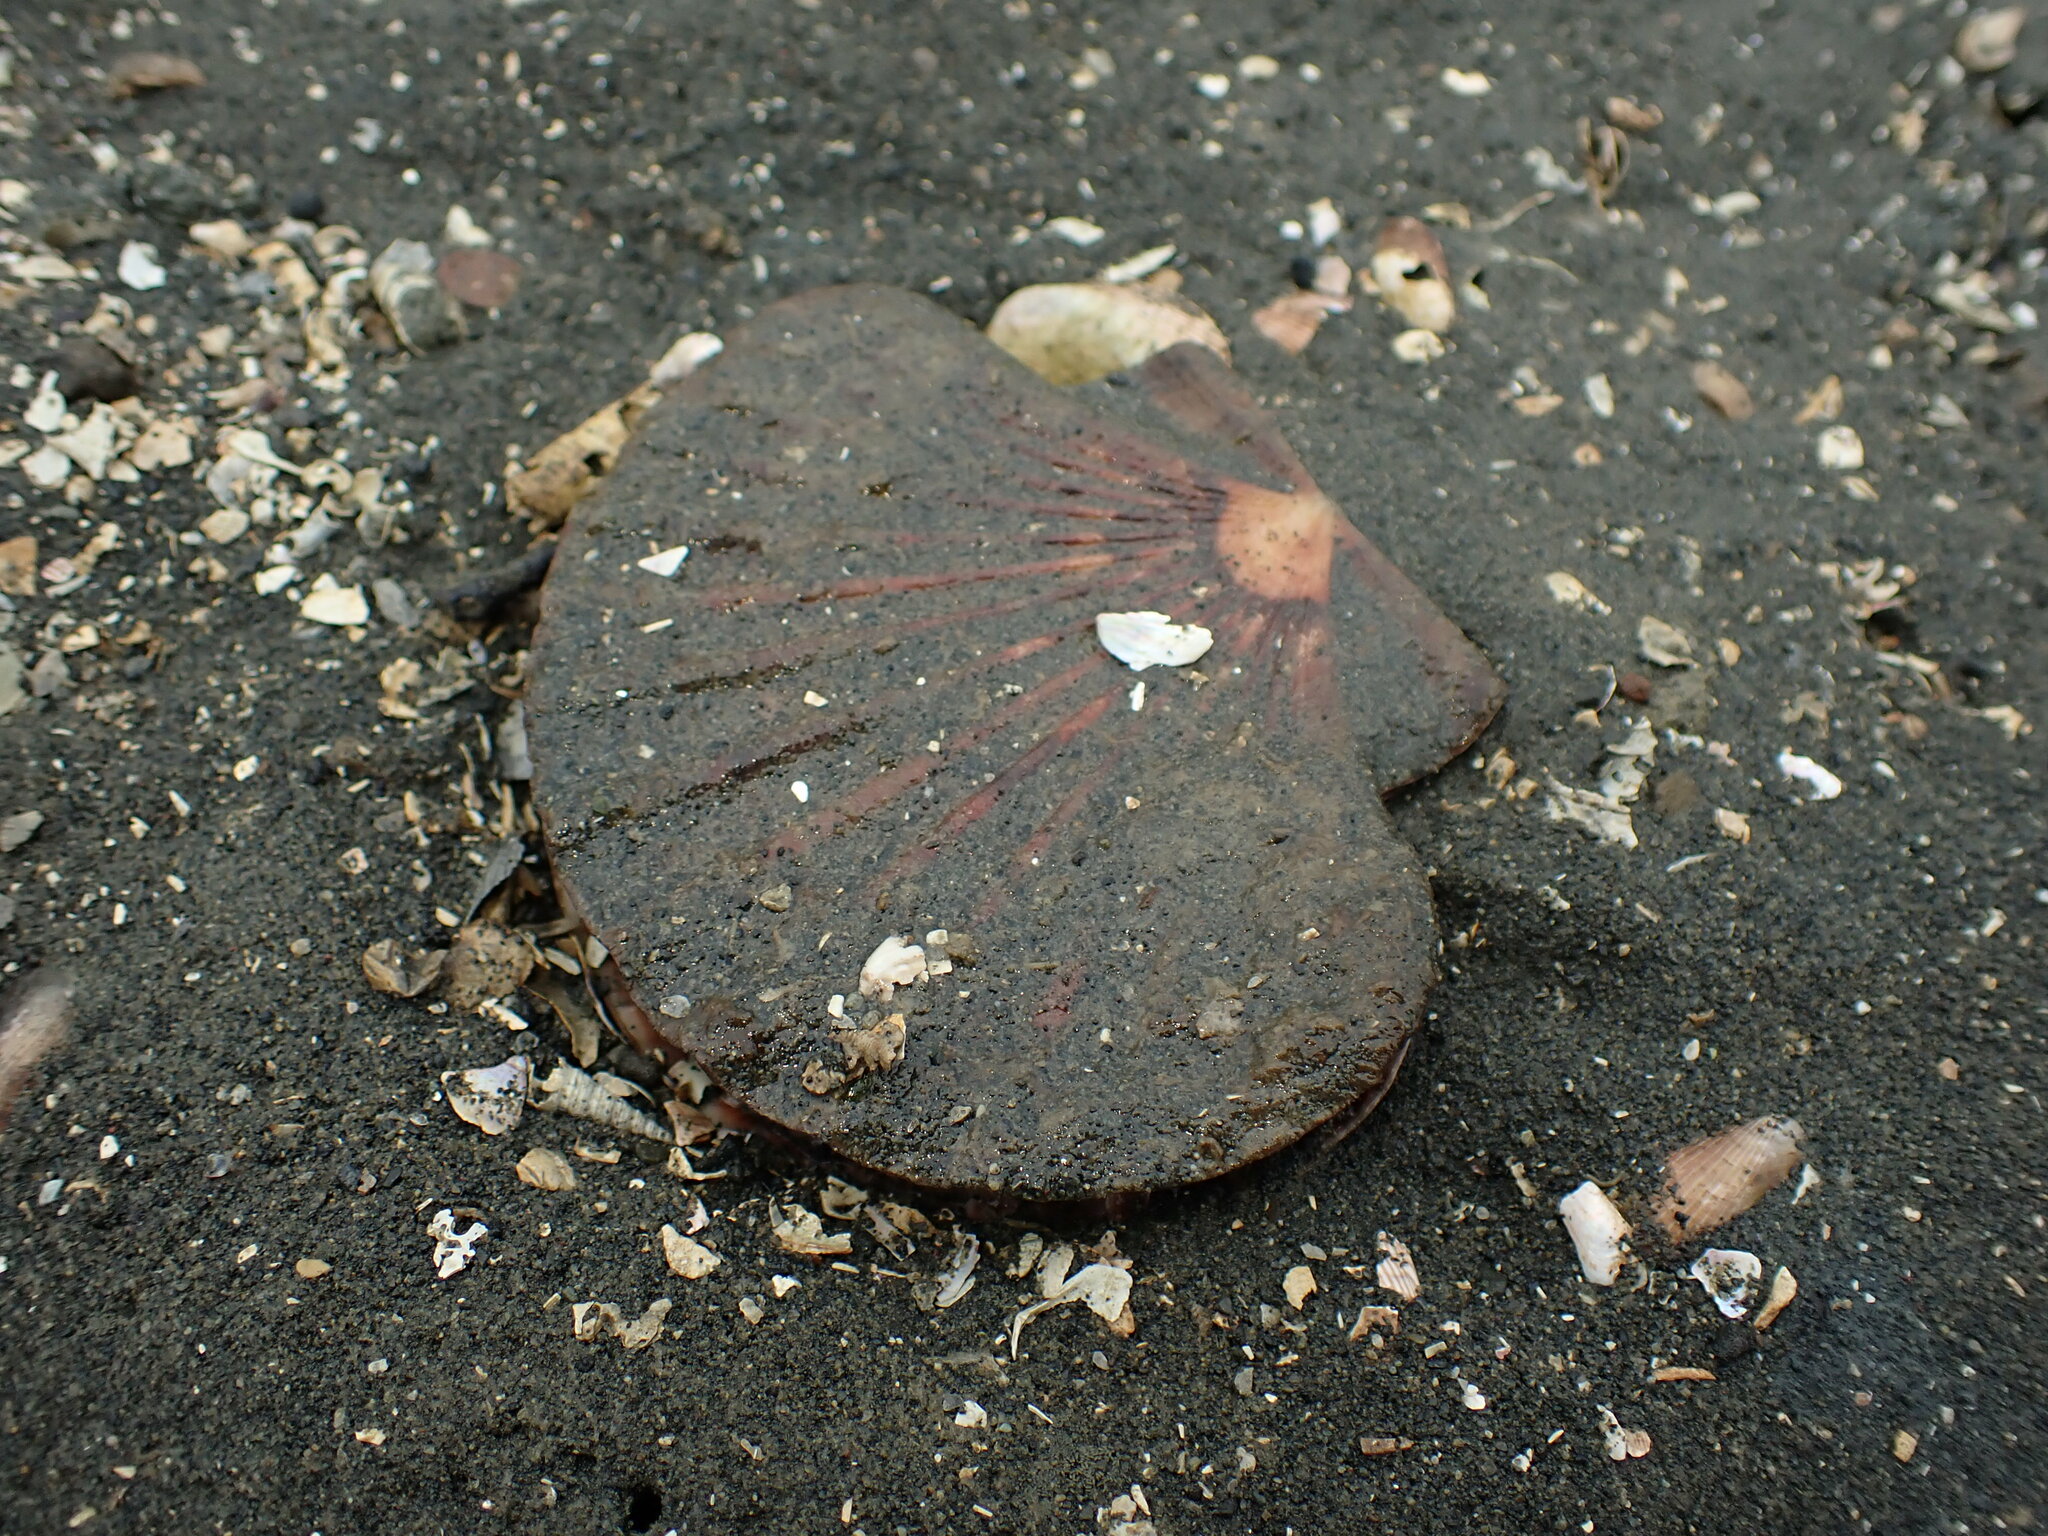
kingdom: Animalia
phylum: Mollusca
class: Bivalvia
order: Pectinida
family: Pectinidae
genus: Pecten
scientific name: Pecten novaezelandiae
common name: New zealand scallop
